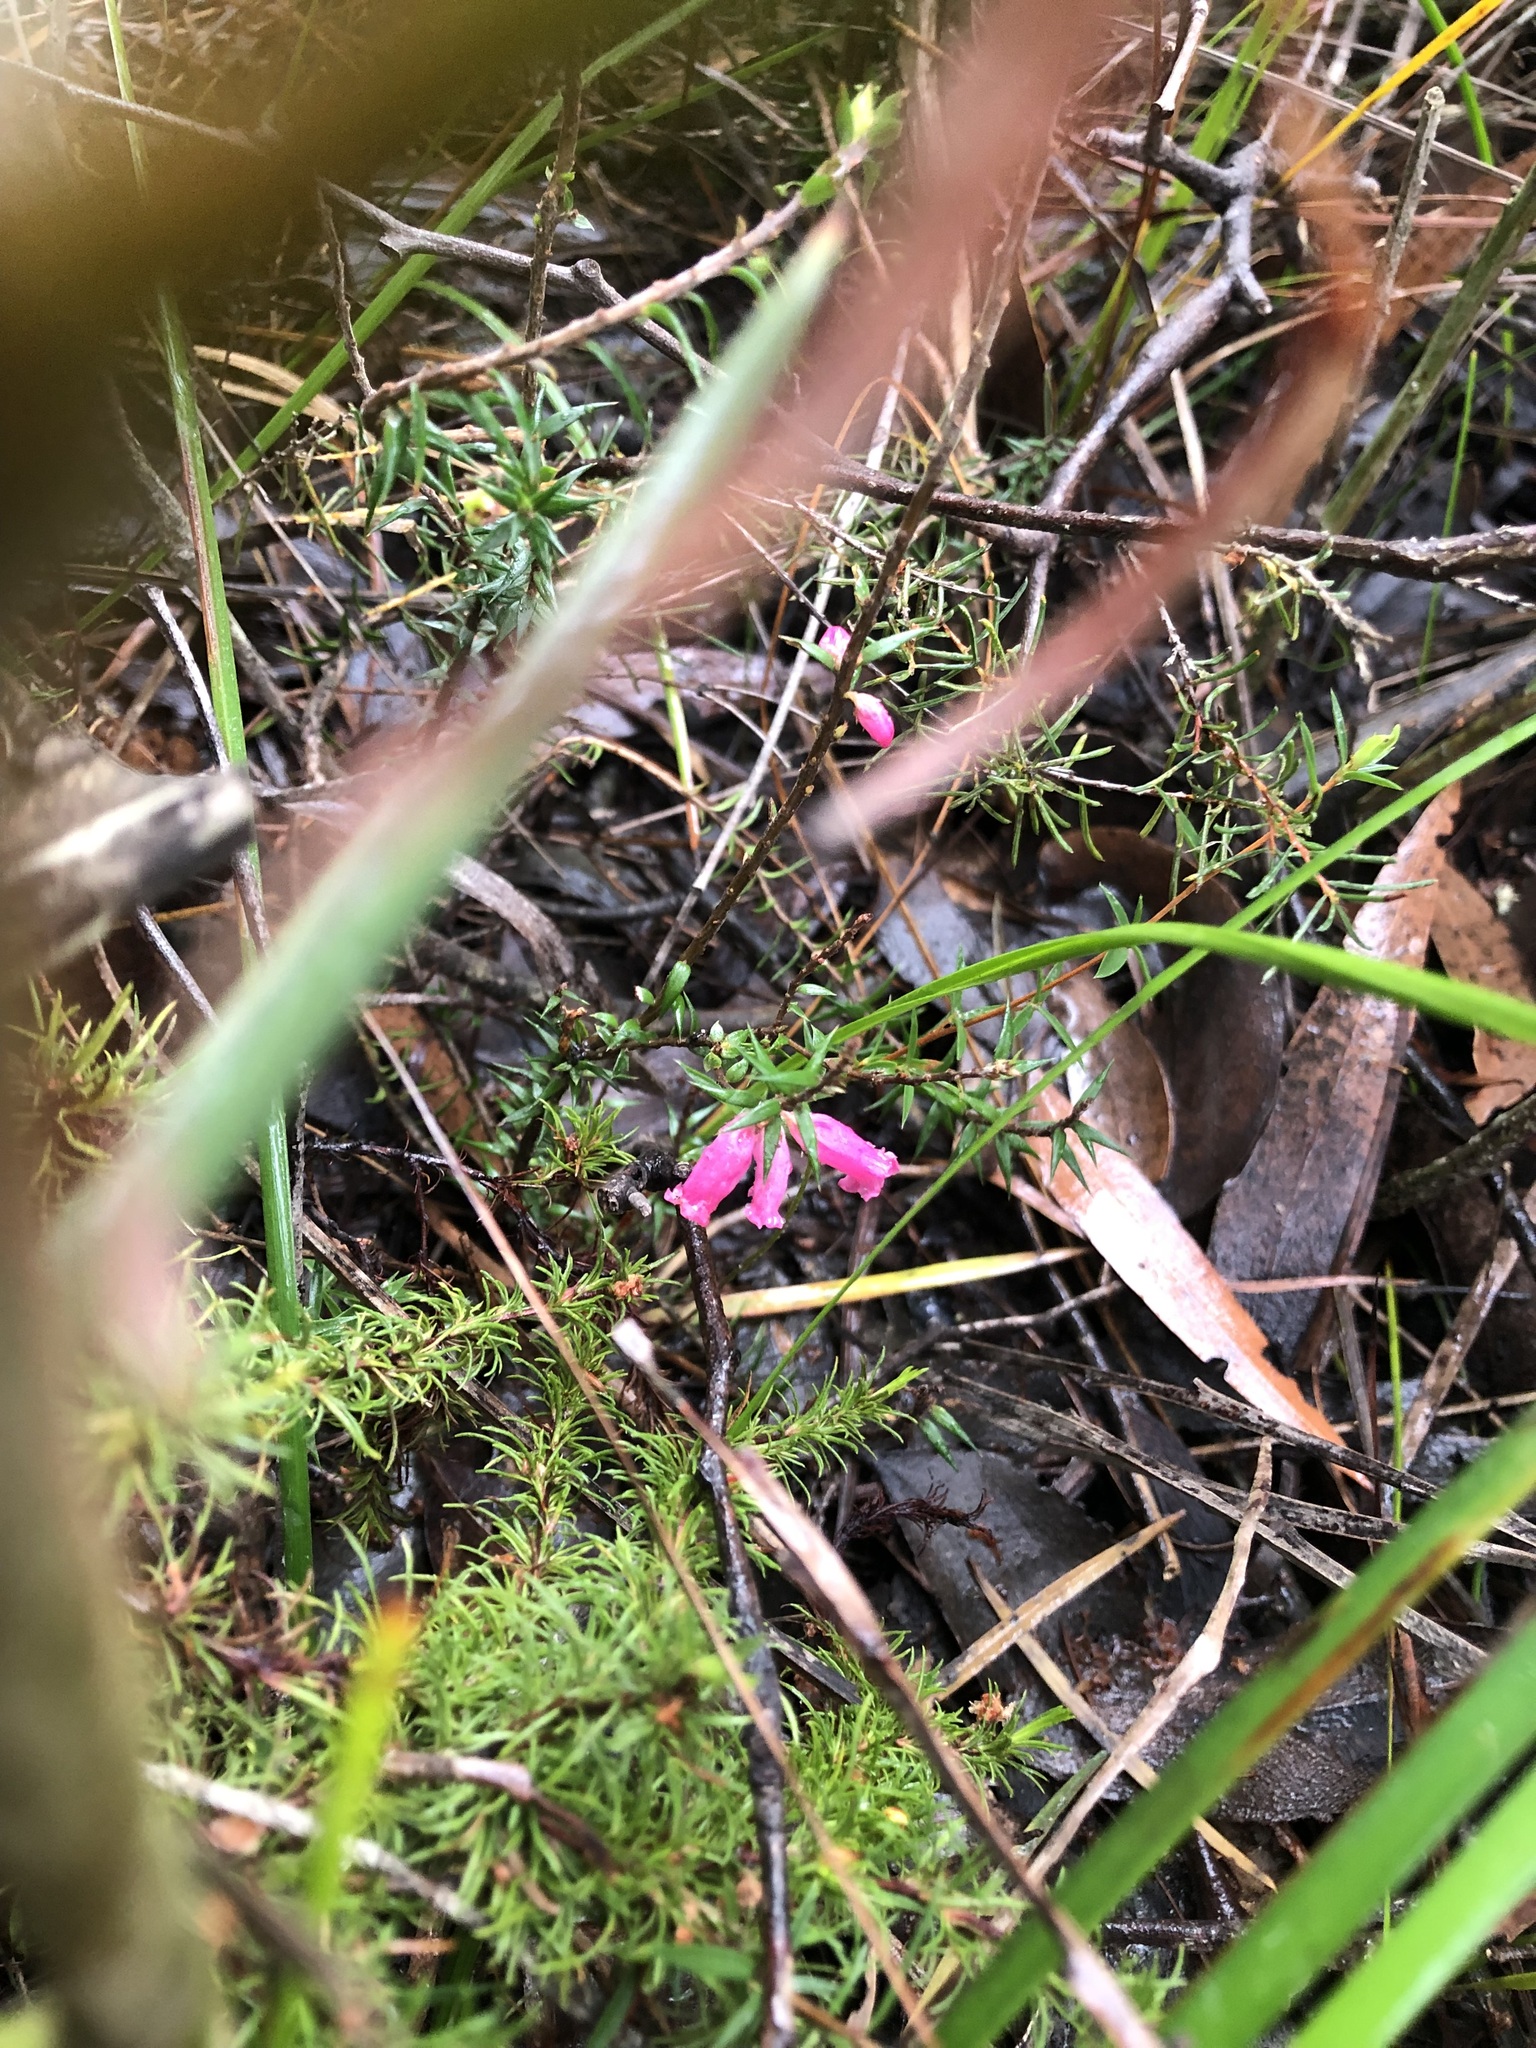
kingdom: Plantae
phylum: Tracheophyta
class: Magnoliopsida
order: Ericales
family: Ericaceae
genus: Epacris
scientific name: Epacris impressa
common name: Common-heath
